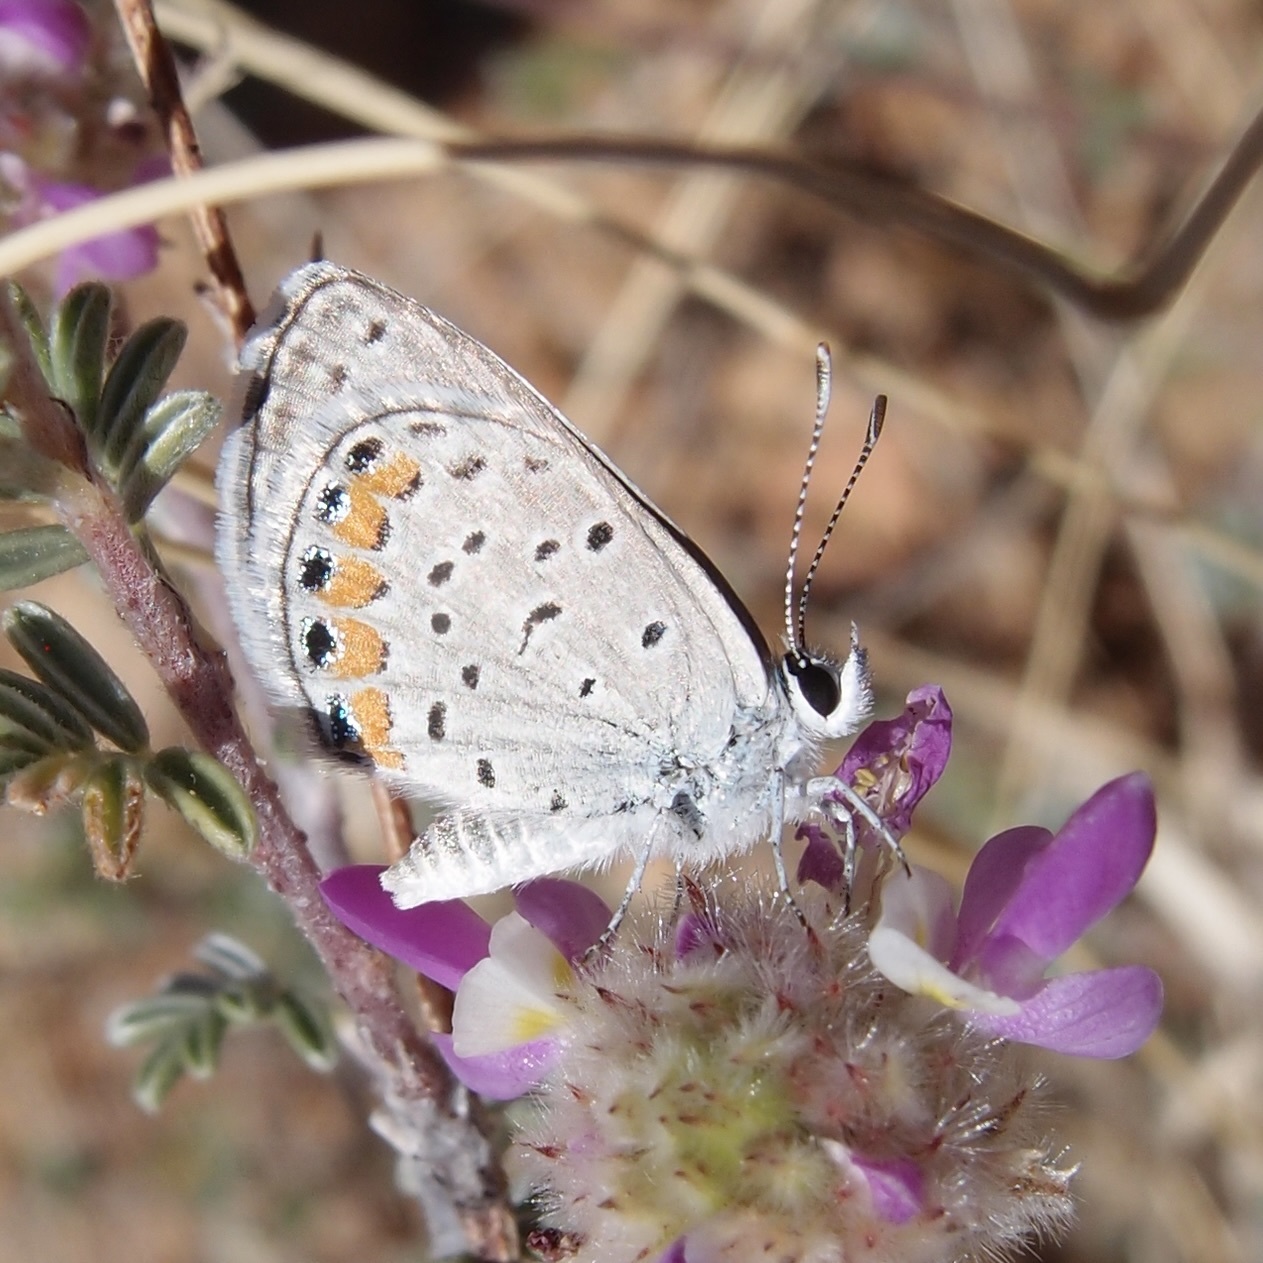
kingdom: Animalia
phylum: Arthropoda
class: Insecta
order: Lepidoptera
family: Lycaenidae
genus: Icaricia
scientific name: Icaricia lupini
